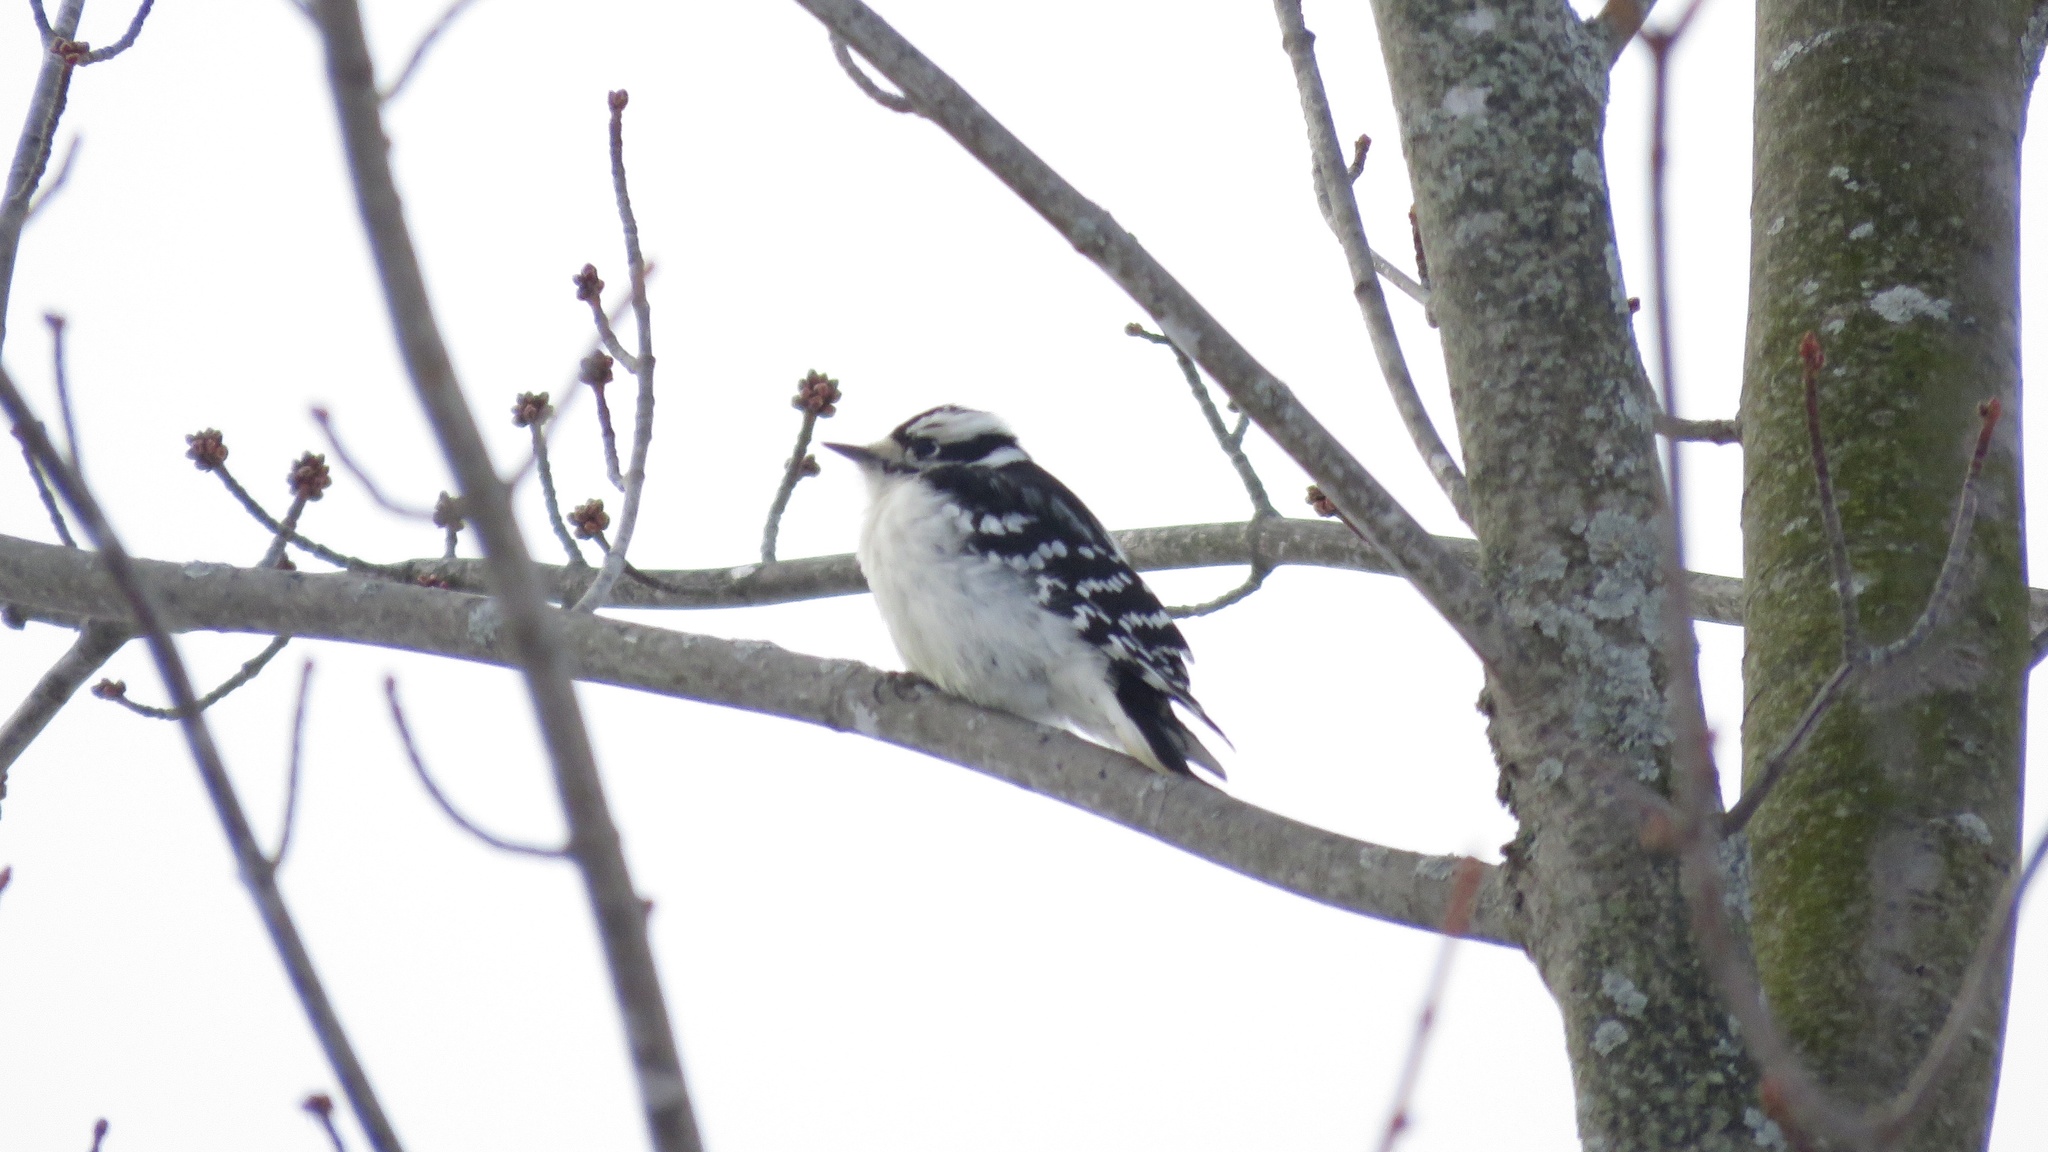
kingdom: Animalia
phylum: Chordata
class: Aves
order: Piciformes
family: Picidae
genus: Dryobates
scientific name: Dryobates pubescens
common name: Downy woodpecker
